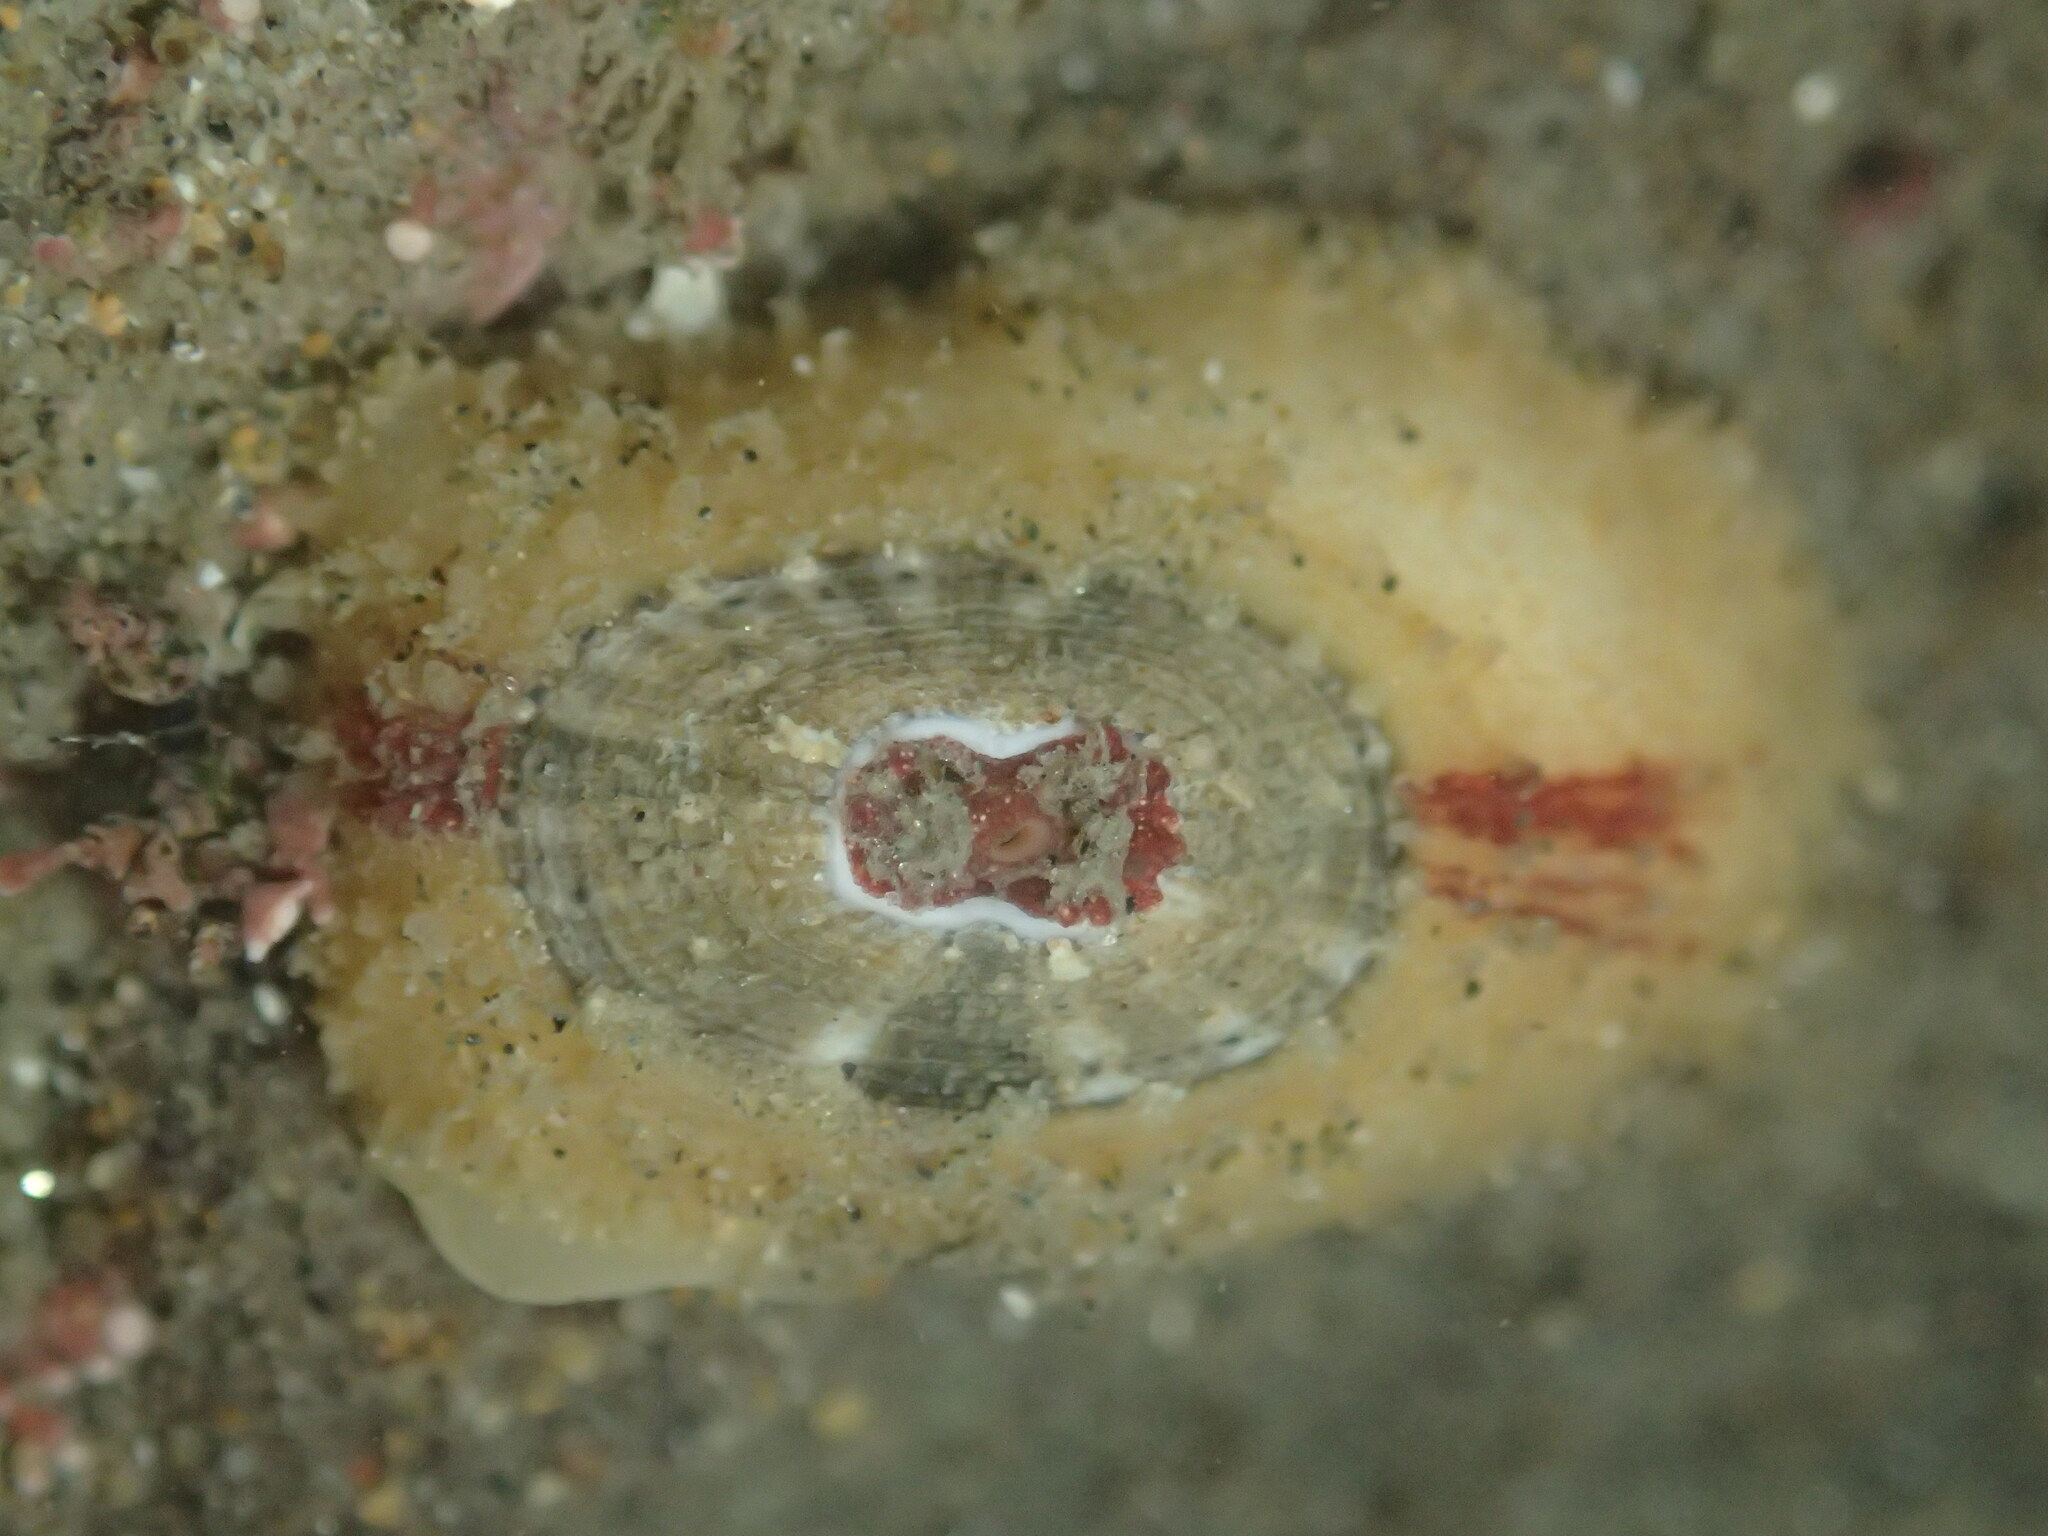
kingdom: Animalia
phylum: Mollusca
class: Gastropoda
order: Lepetellida
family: Fissurellidae
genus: Fissurellidea
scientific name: Fissurellidea bimaculata
